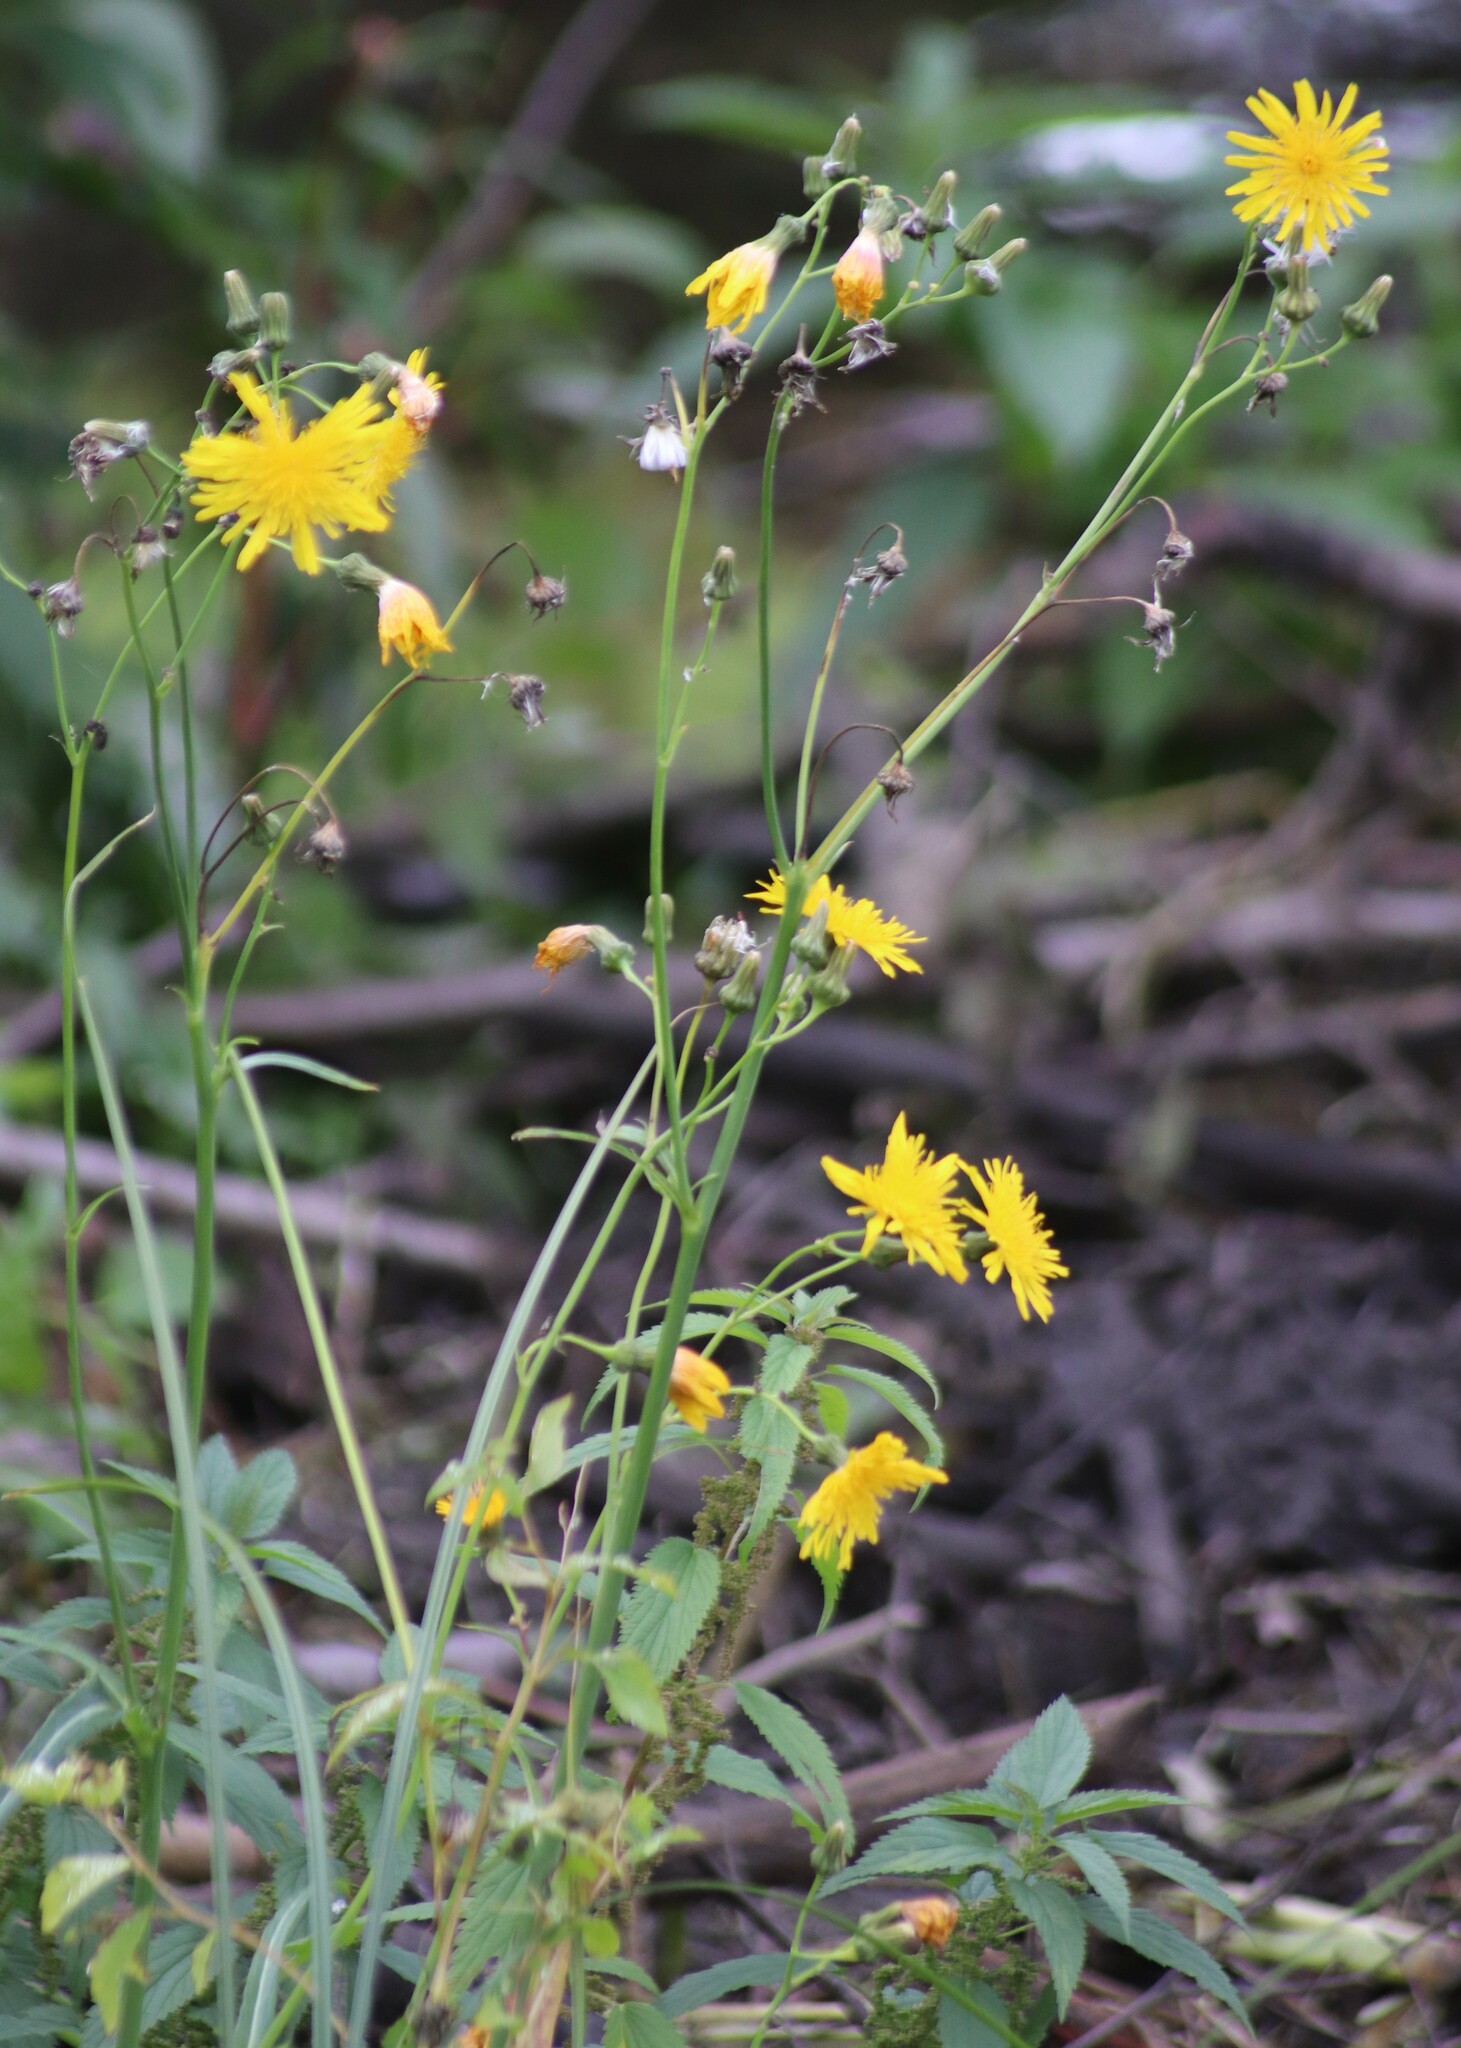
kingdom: Plantae
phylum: Tracheophyta
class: Magnoliopsida
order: Asterales
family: Asteraceae
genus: Sonchus
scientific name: Sonchus arvensis
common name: Perennial sow-thistle
